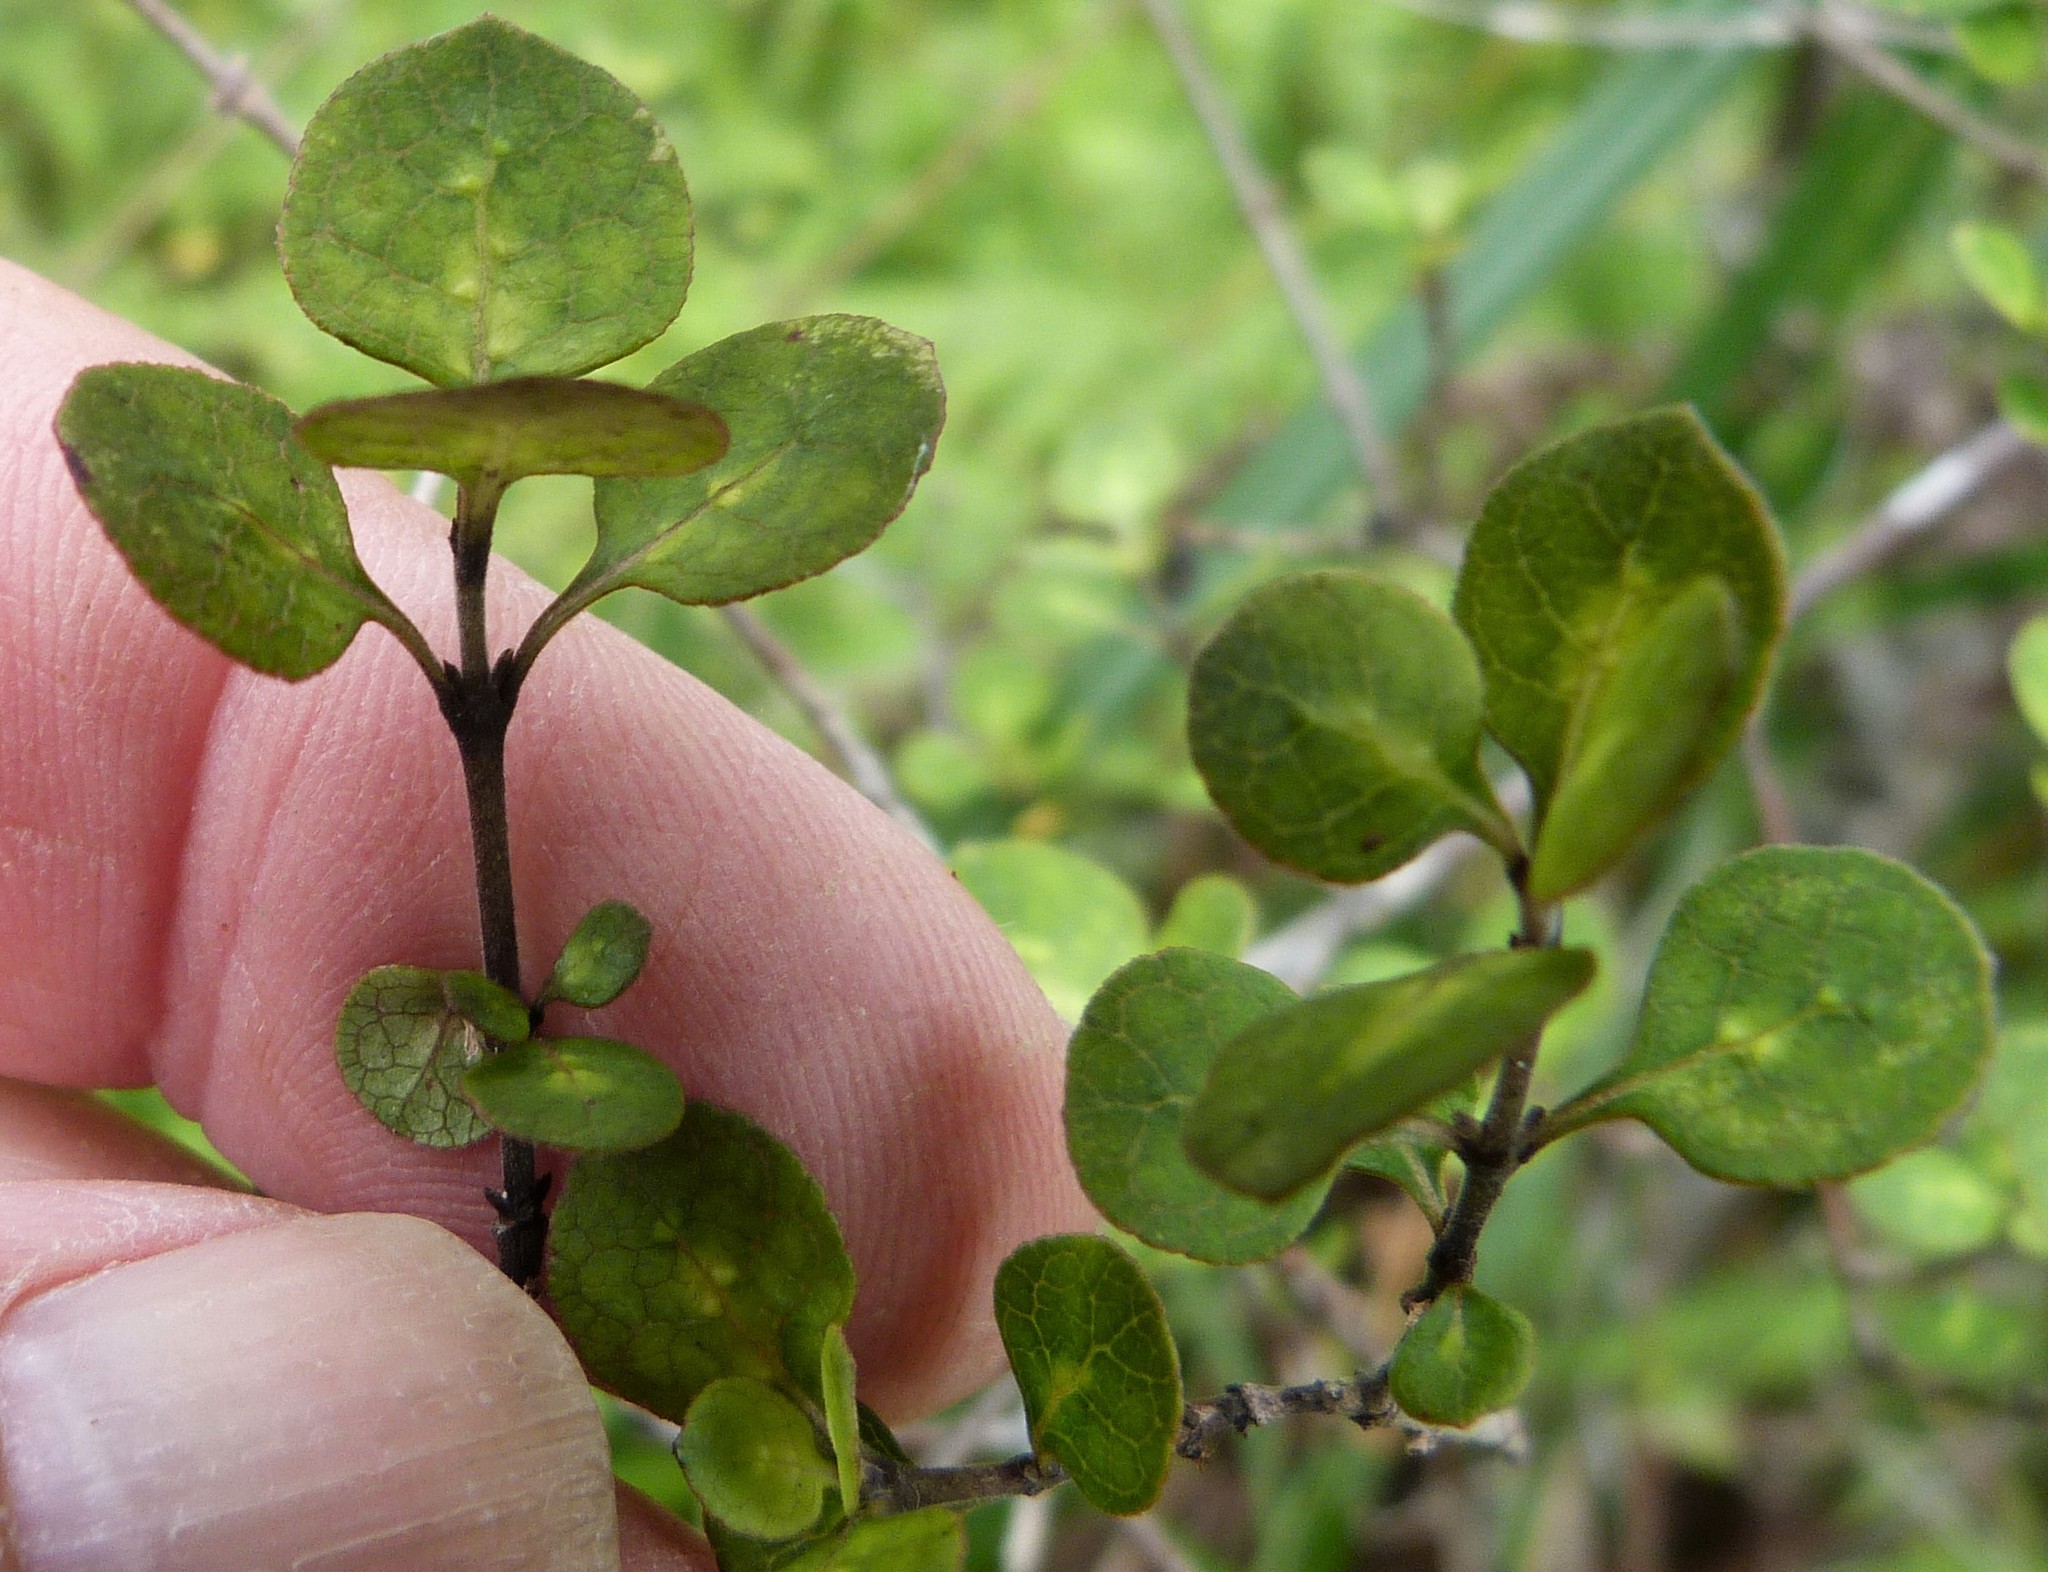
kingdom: Plantae
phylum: Tracheophyta
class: Magnoliopsida
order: Gentianales
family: Rubiaceae
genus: Coprosma
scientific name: Coprosma tenuicaulis
